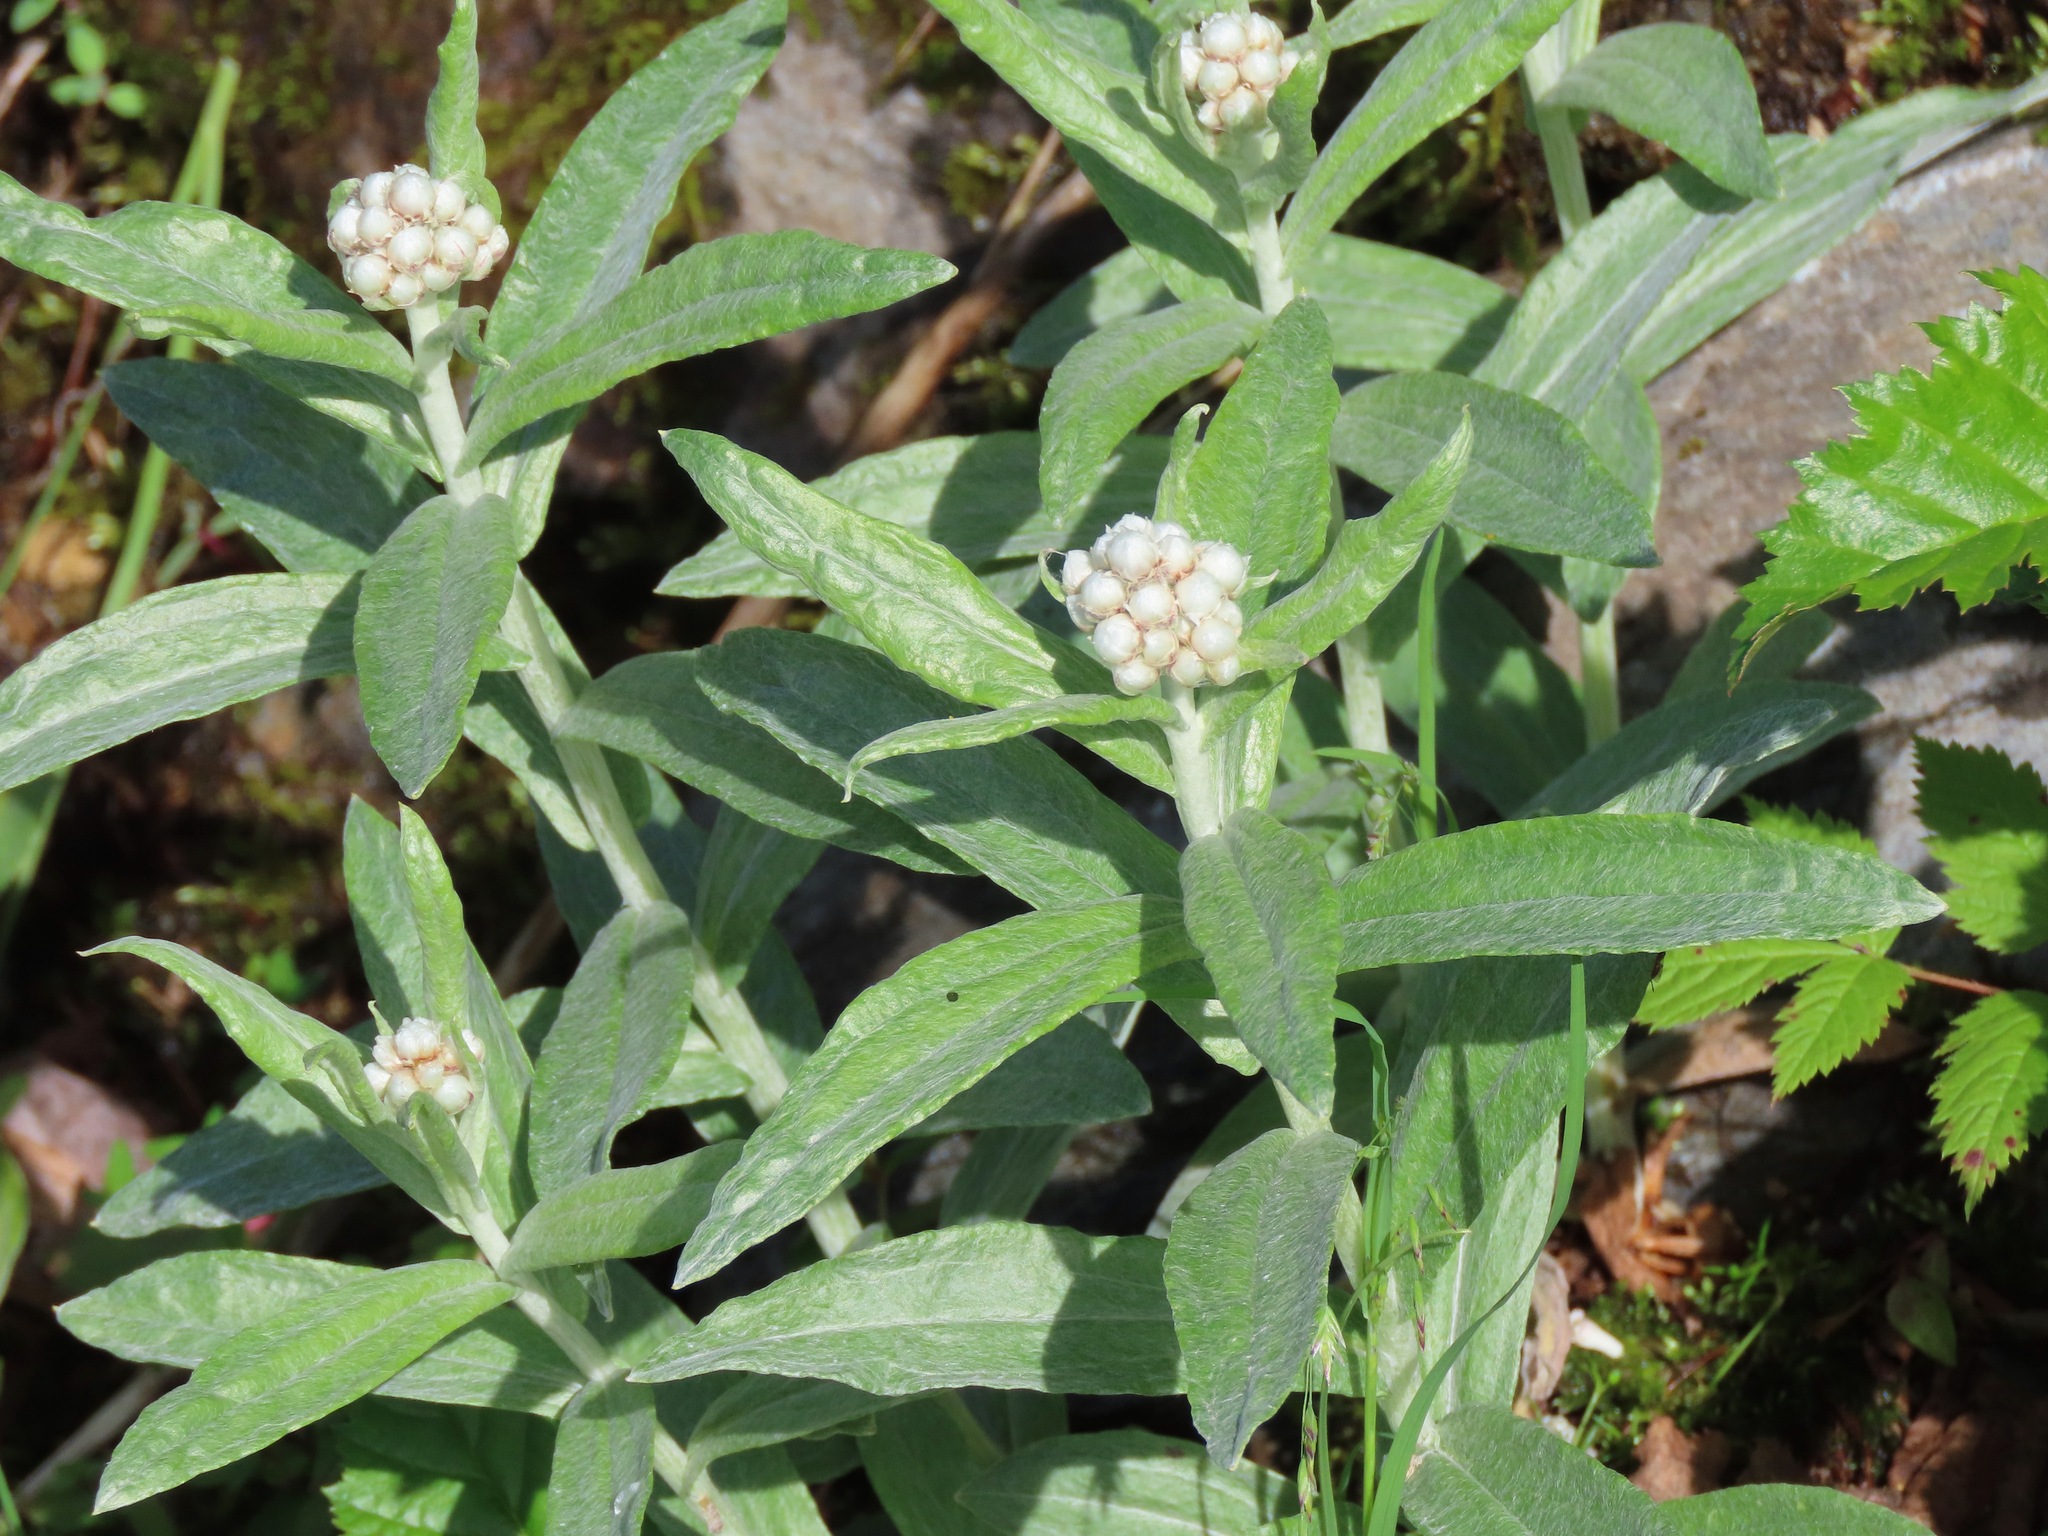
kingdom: Plantae
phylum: Tracheophyta
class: Magnoliopsida
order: Asterales
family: Asteraceae
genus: Anaphalis
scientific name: Anaphalis margaritacea
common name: Pearly everlasting
